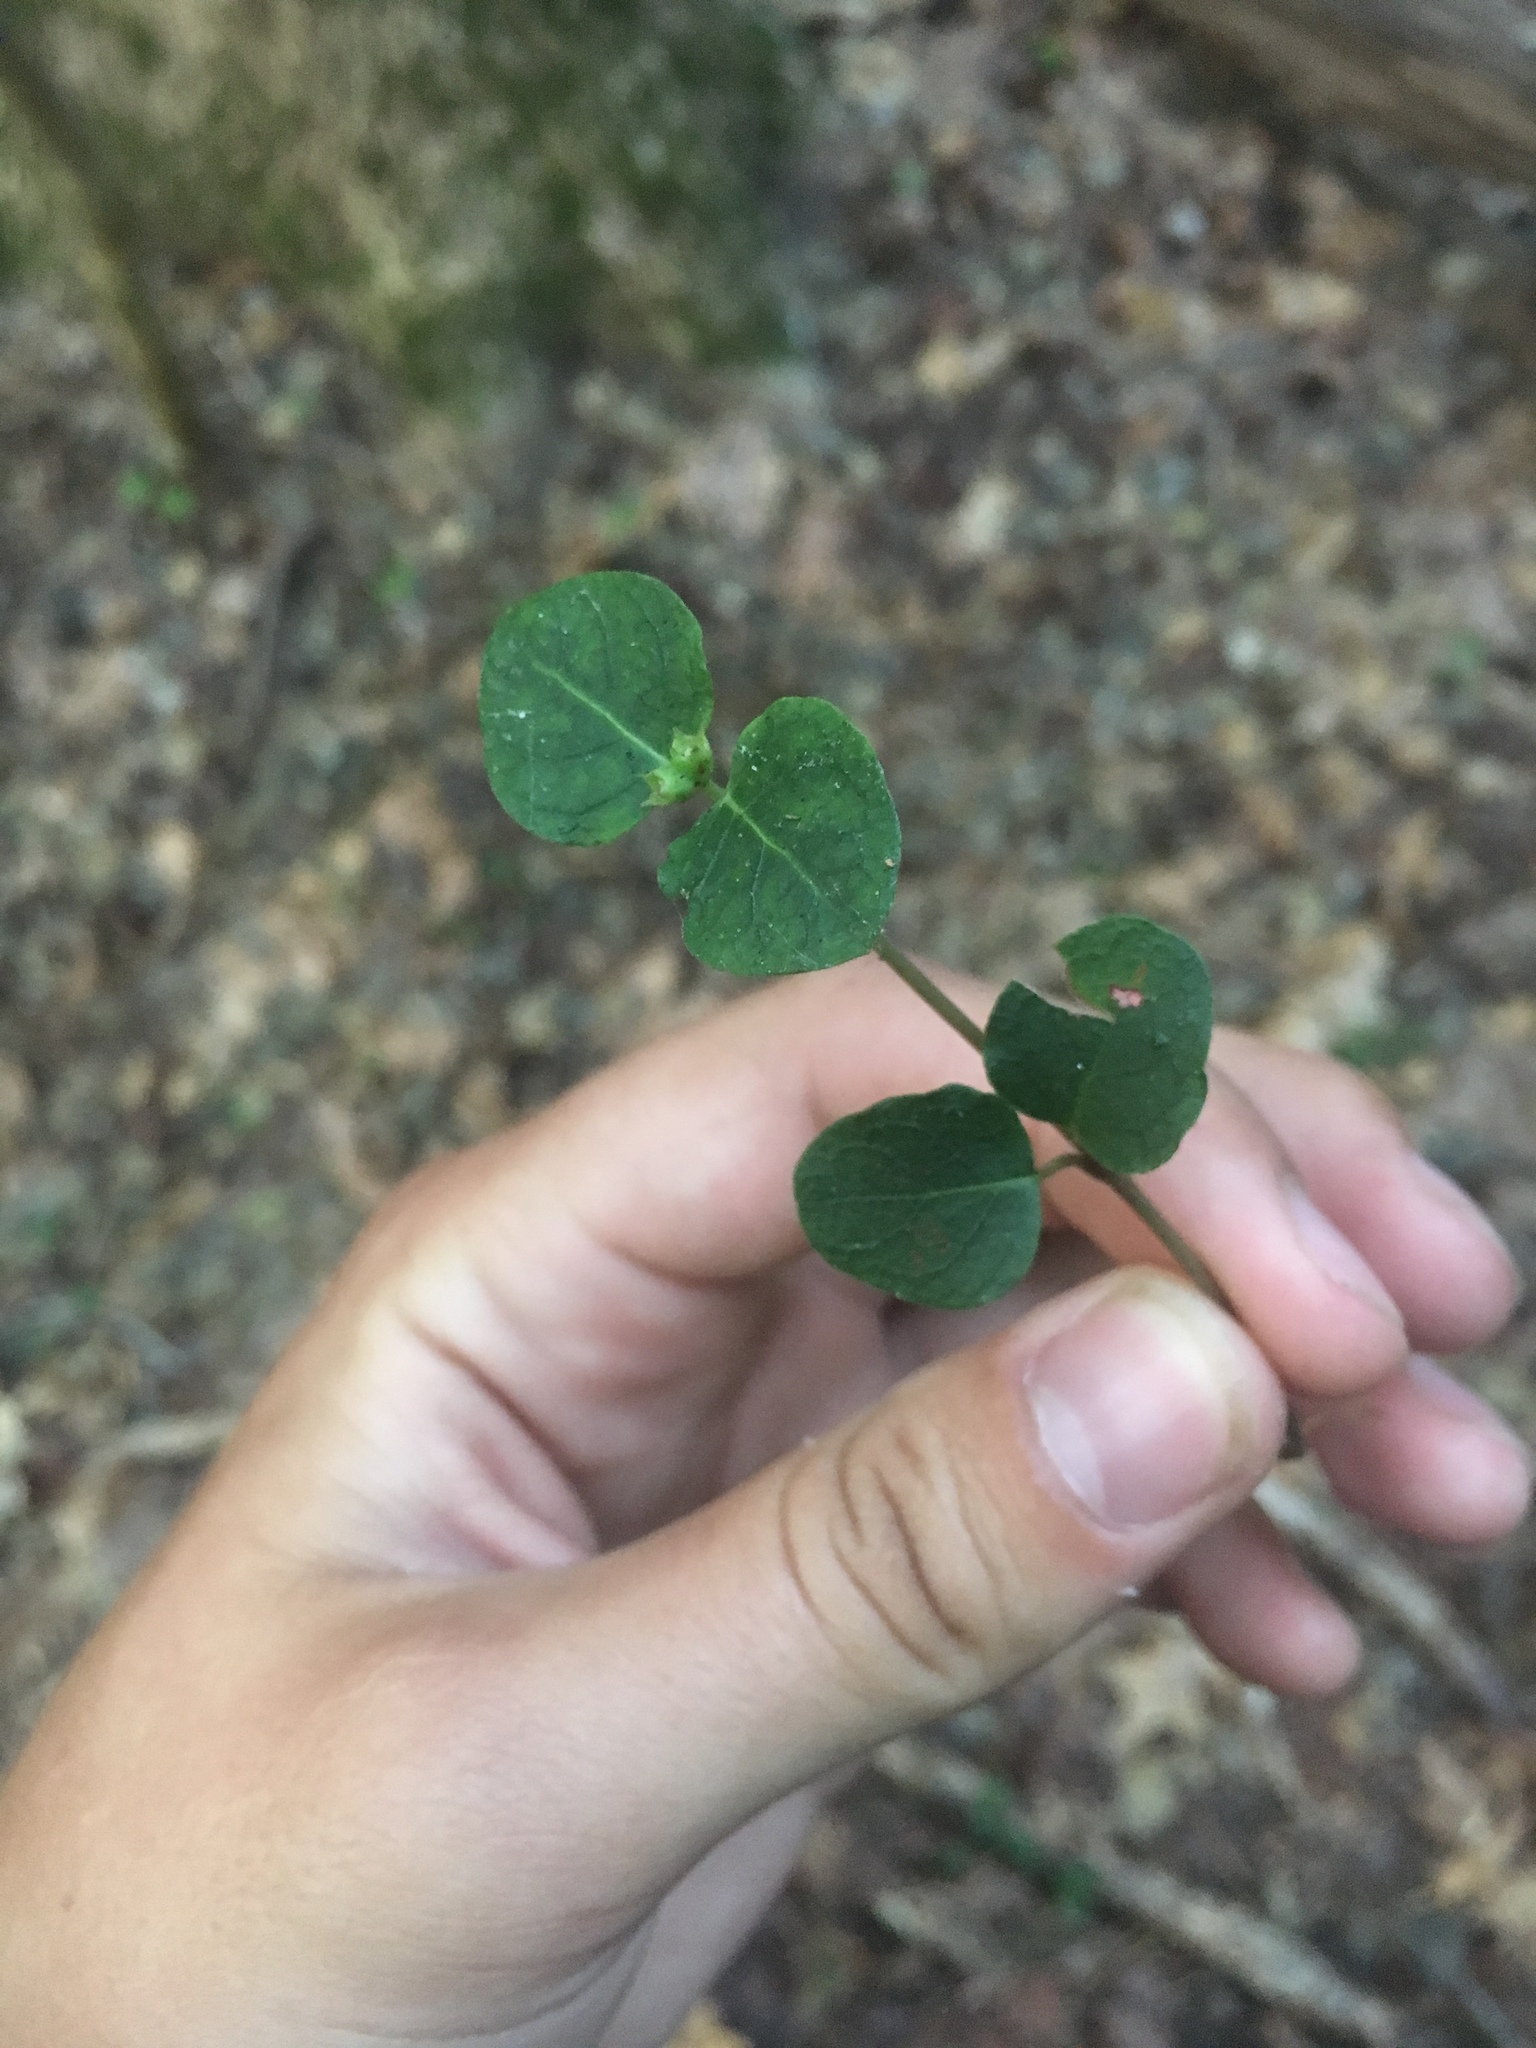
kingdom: Plantae
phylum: Tracheophyta
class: Magnoliopsida
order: Gentianales
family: Rubiaceae
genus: Mitchella
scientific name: Mitchella repens
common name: Partridge-berry
